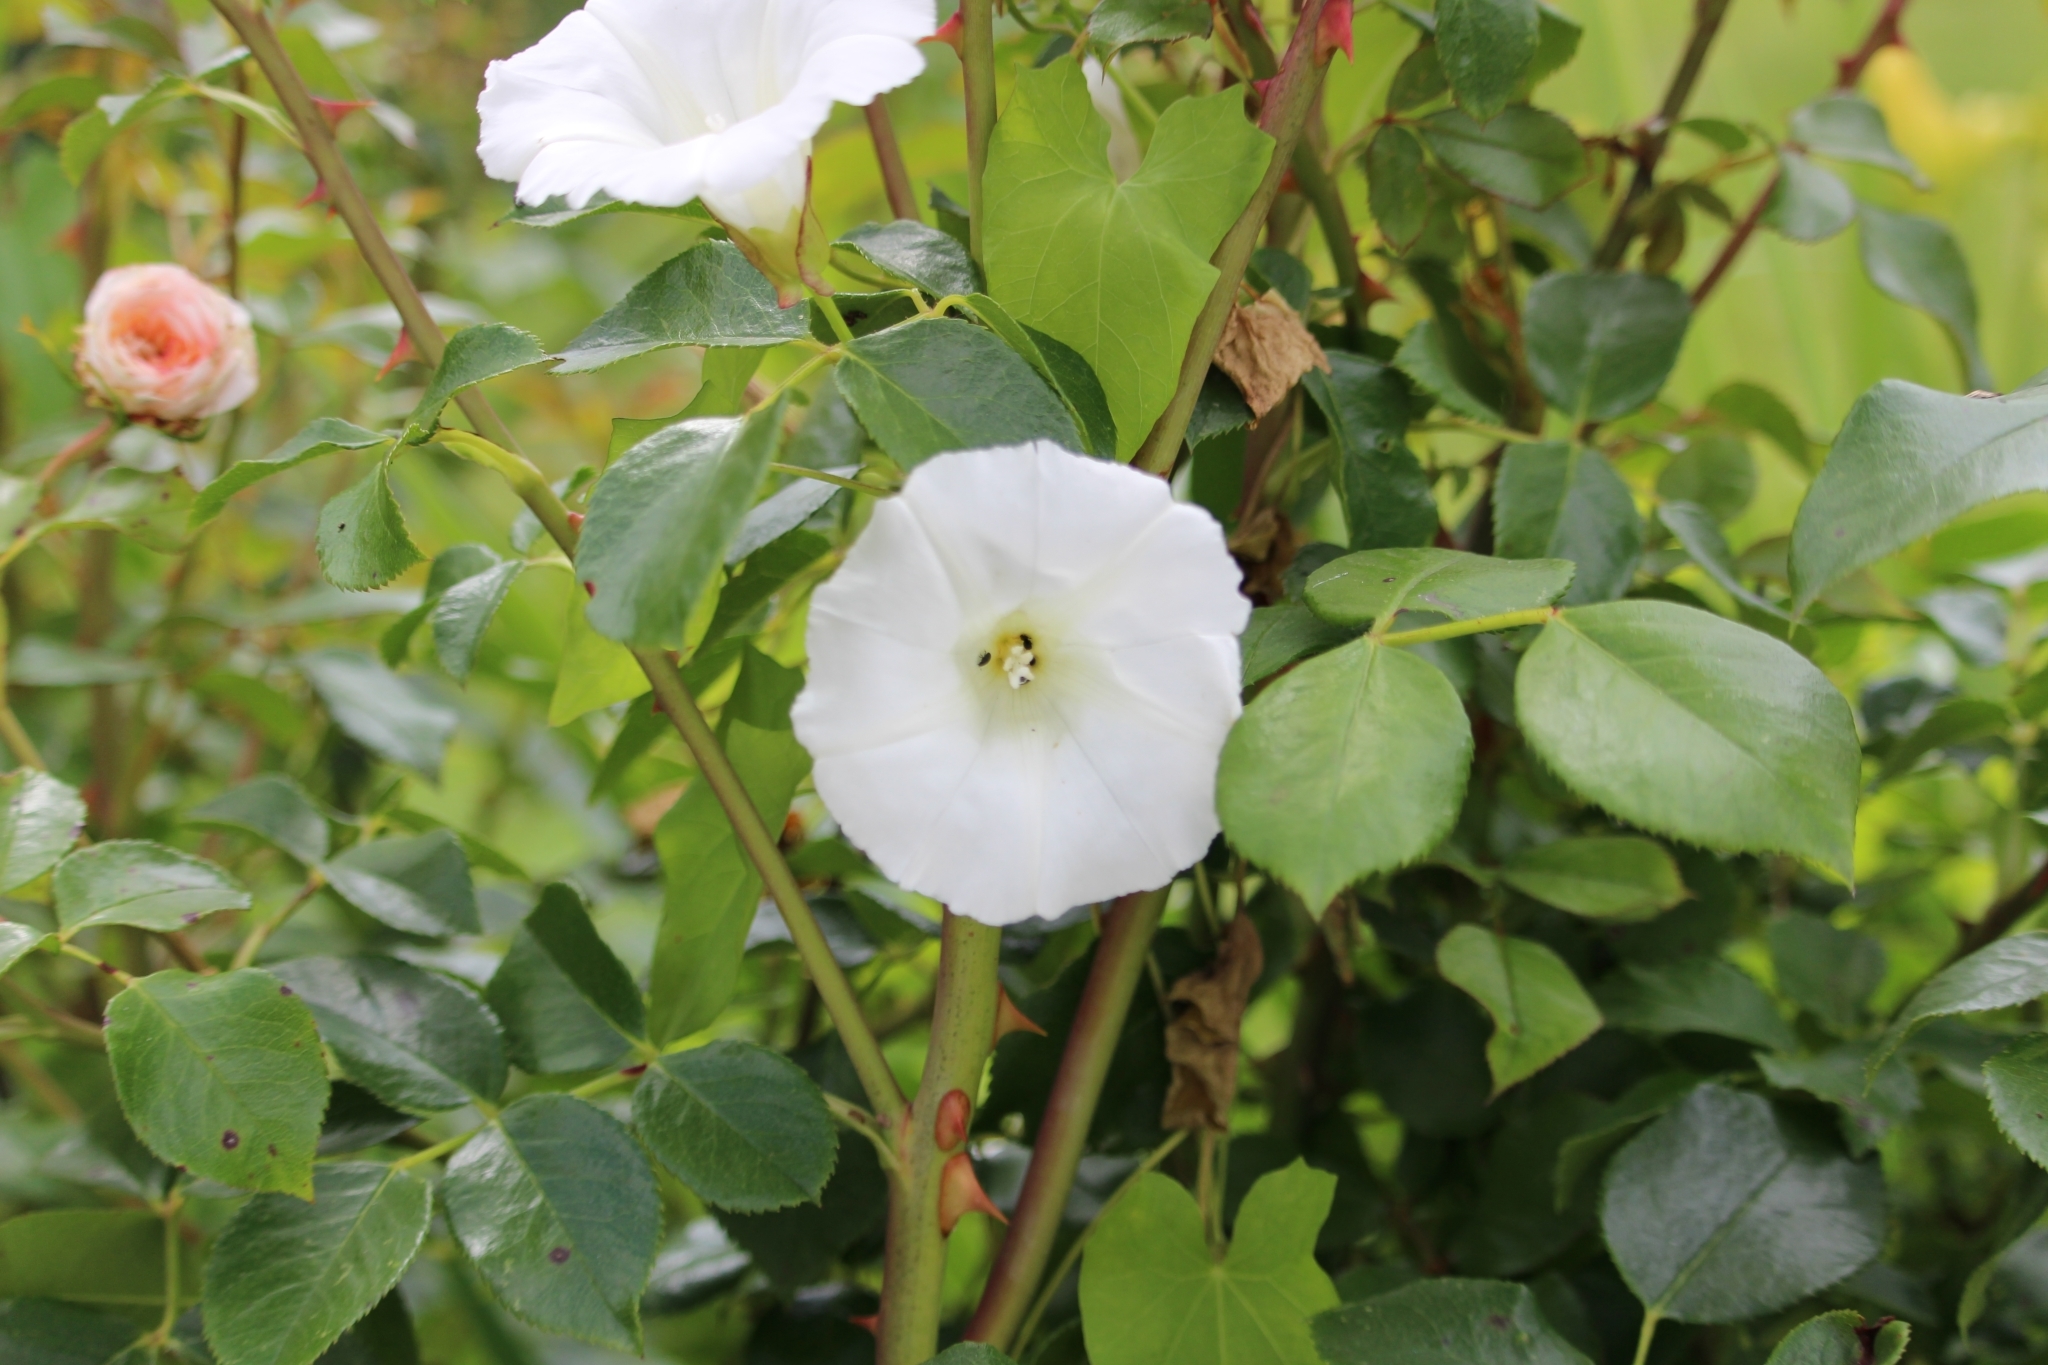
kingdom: Plantae
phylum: Tracheophyta
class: Magnoliopsida
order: Solanales
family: Convolvulaceae
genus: Calystegia
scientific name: Calystegia sepium
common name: Hedge bindweed
